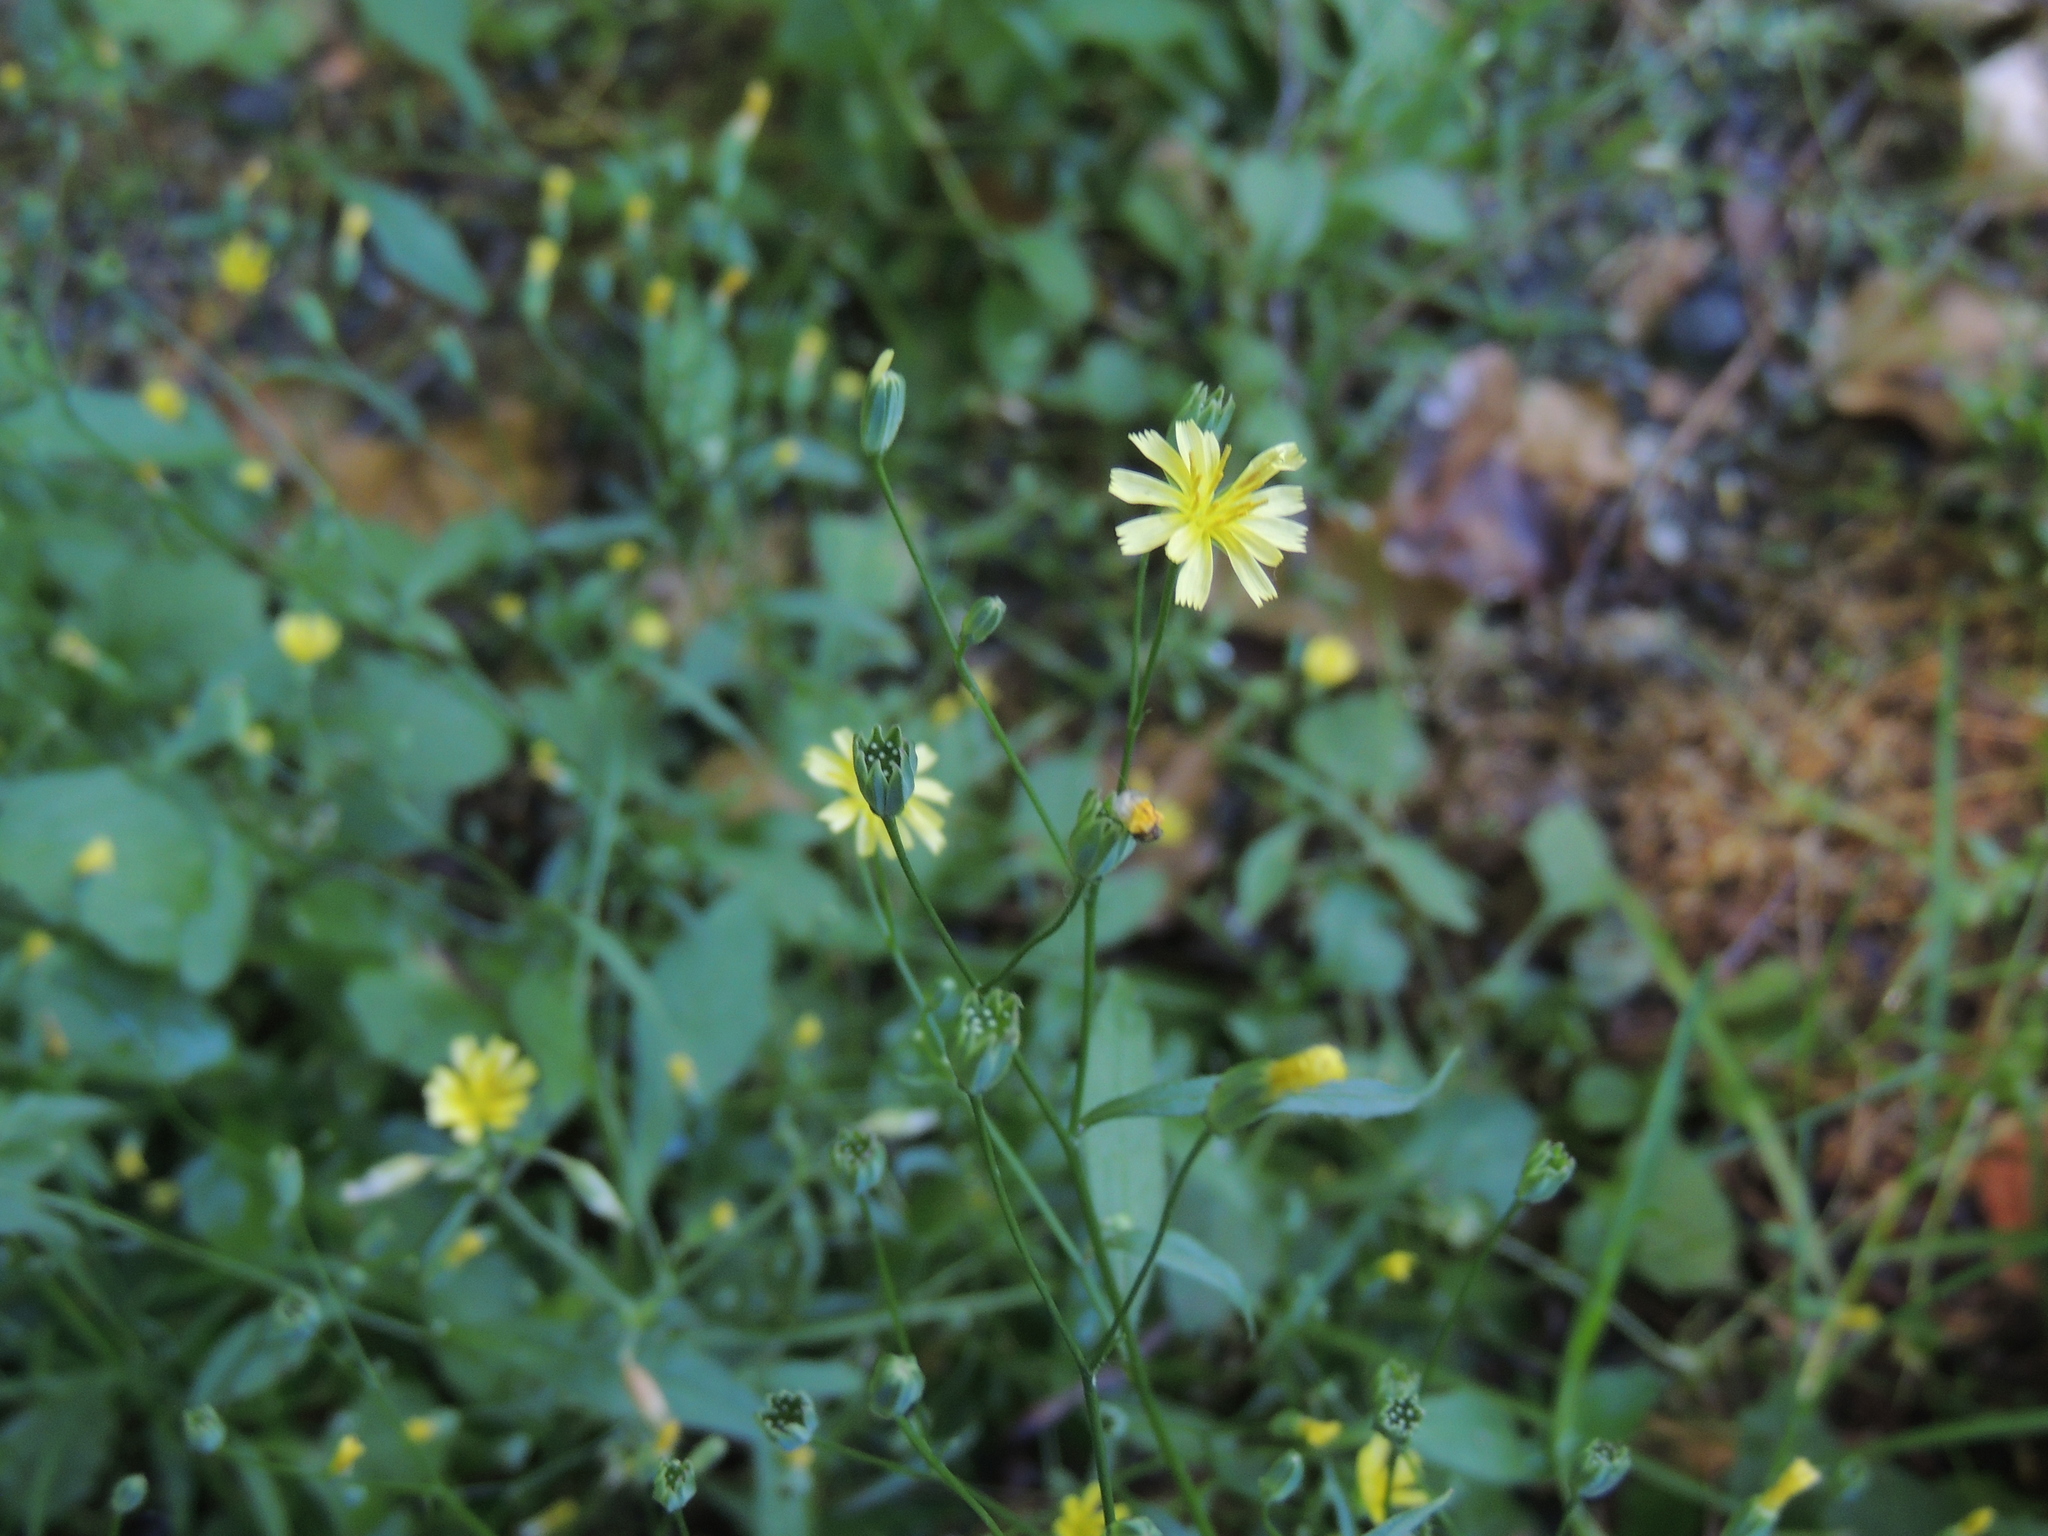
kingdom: Plantae
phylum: Tracheophyta
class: Magnoliopsida
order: Asterales
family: Asteraceae
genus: Lapsana
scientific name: Lapsana communis
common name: Nipplewort
